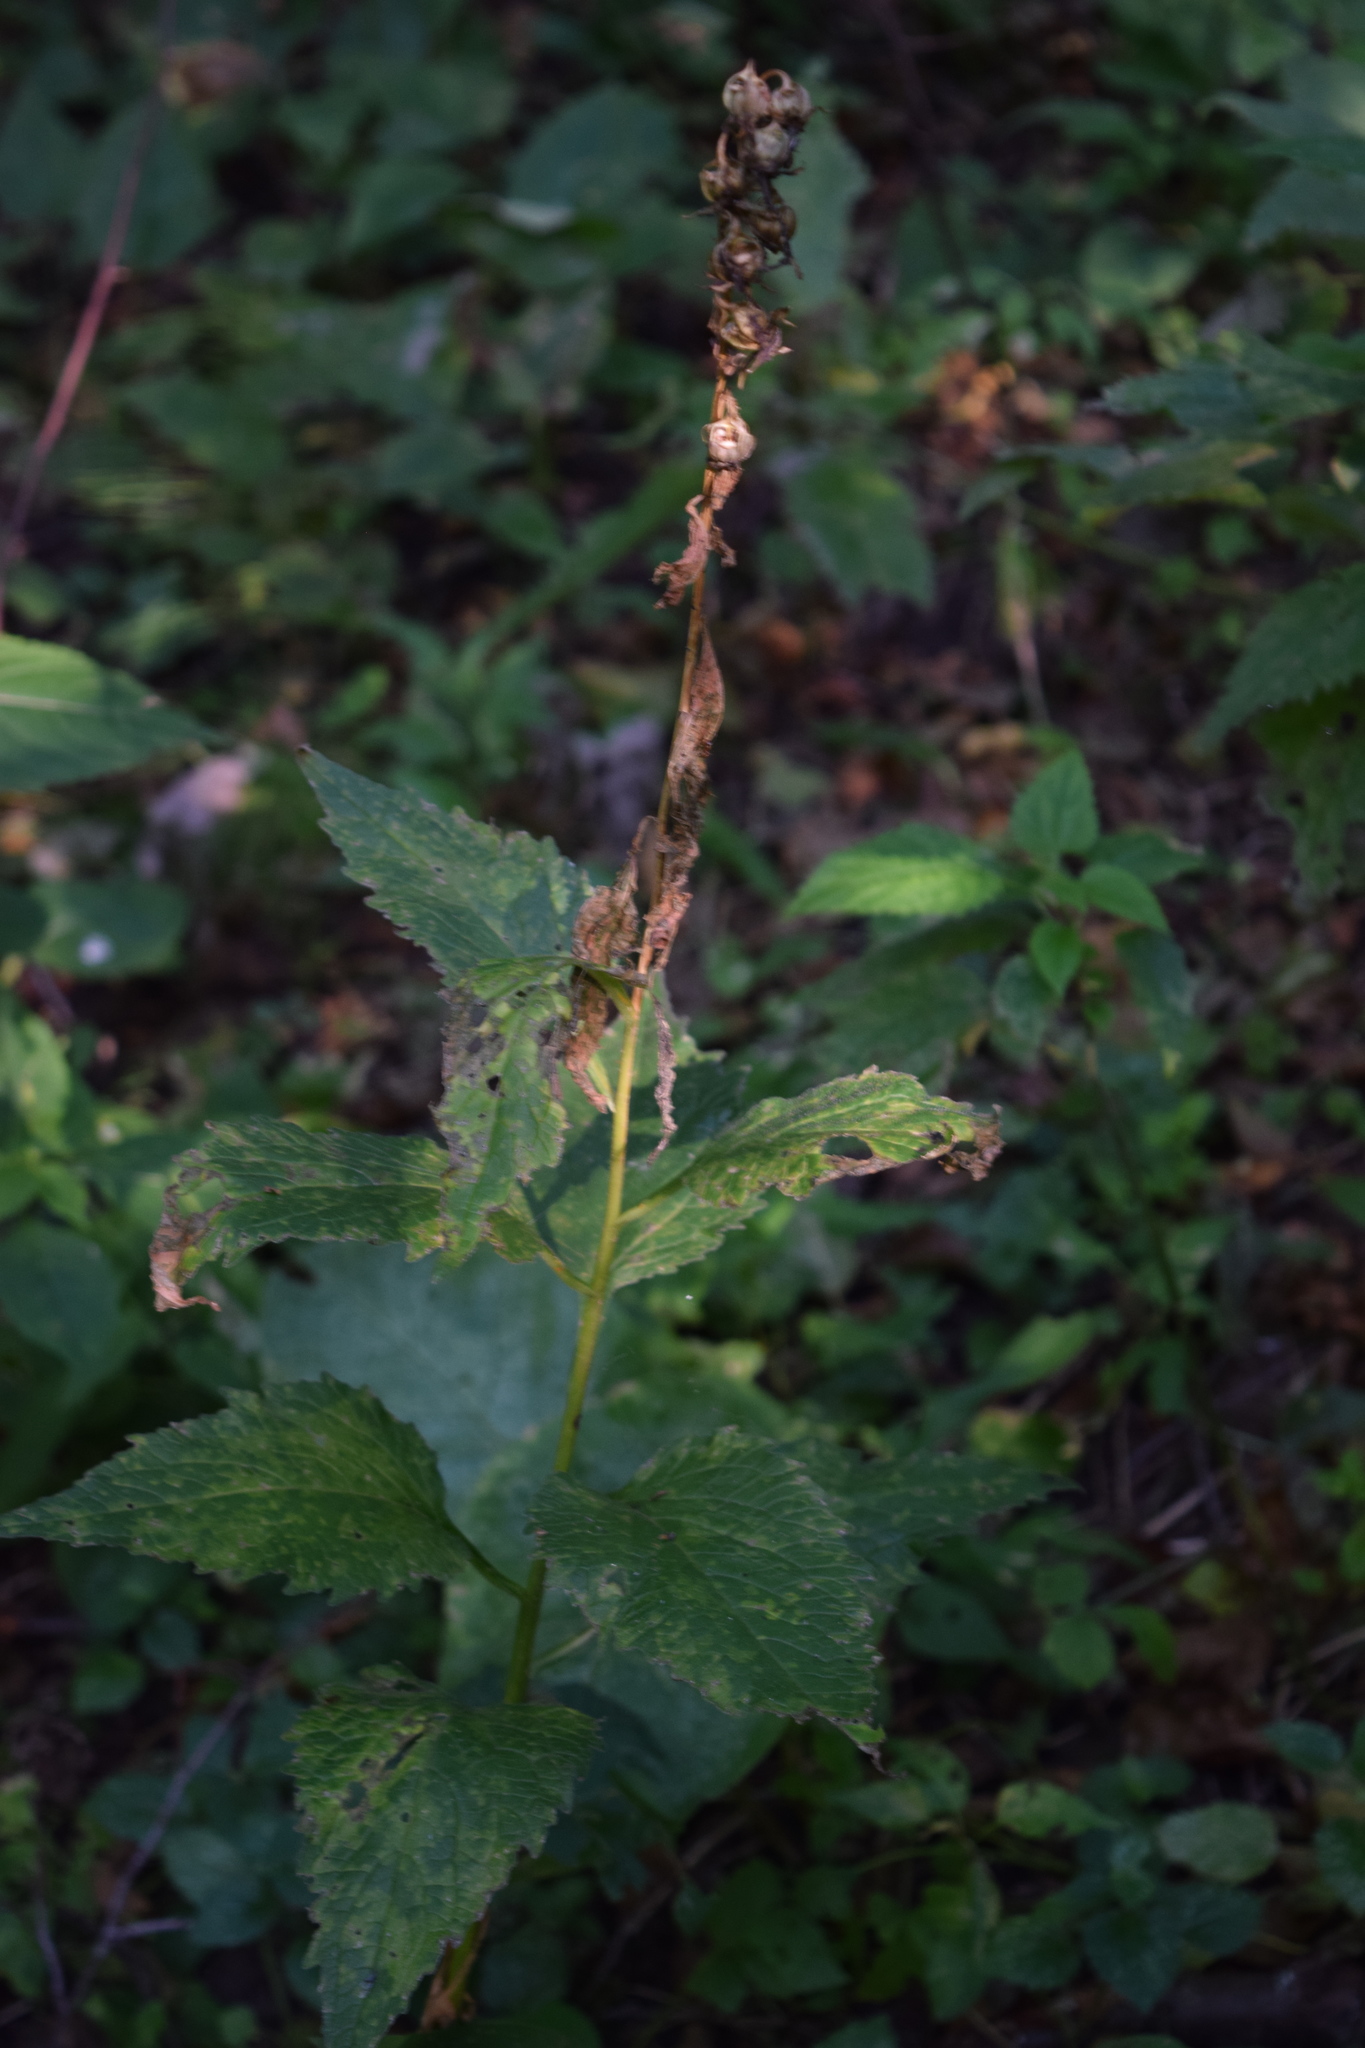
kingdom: Plantae
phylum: Tracheophyta
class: Magnoliopsida
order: Asterales
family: Campanulaceae
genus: Campanula
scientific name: Campanula latifolia
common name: Giant bellflower
